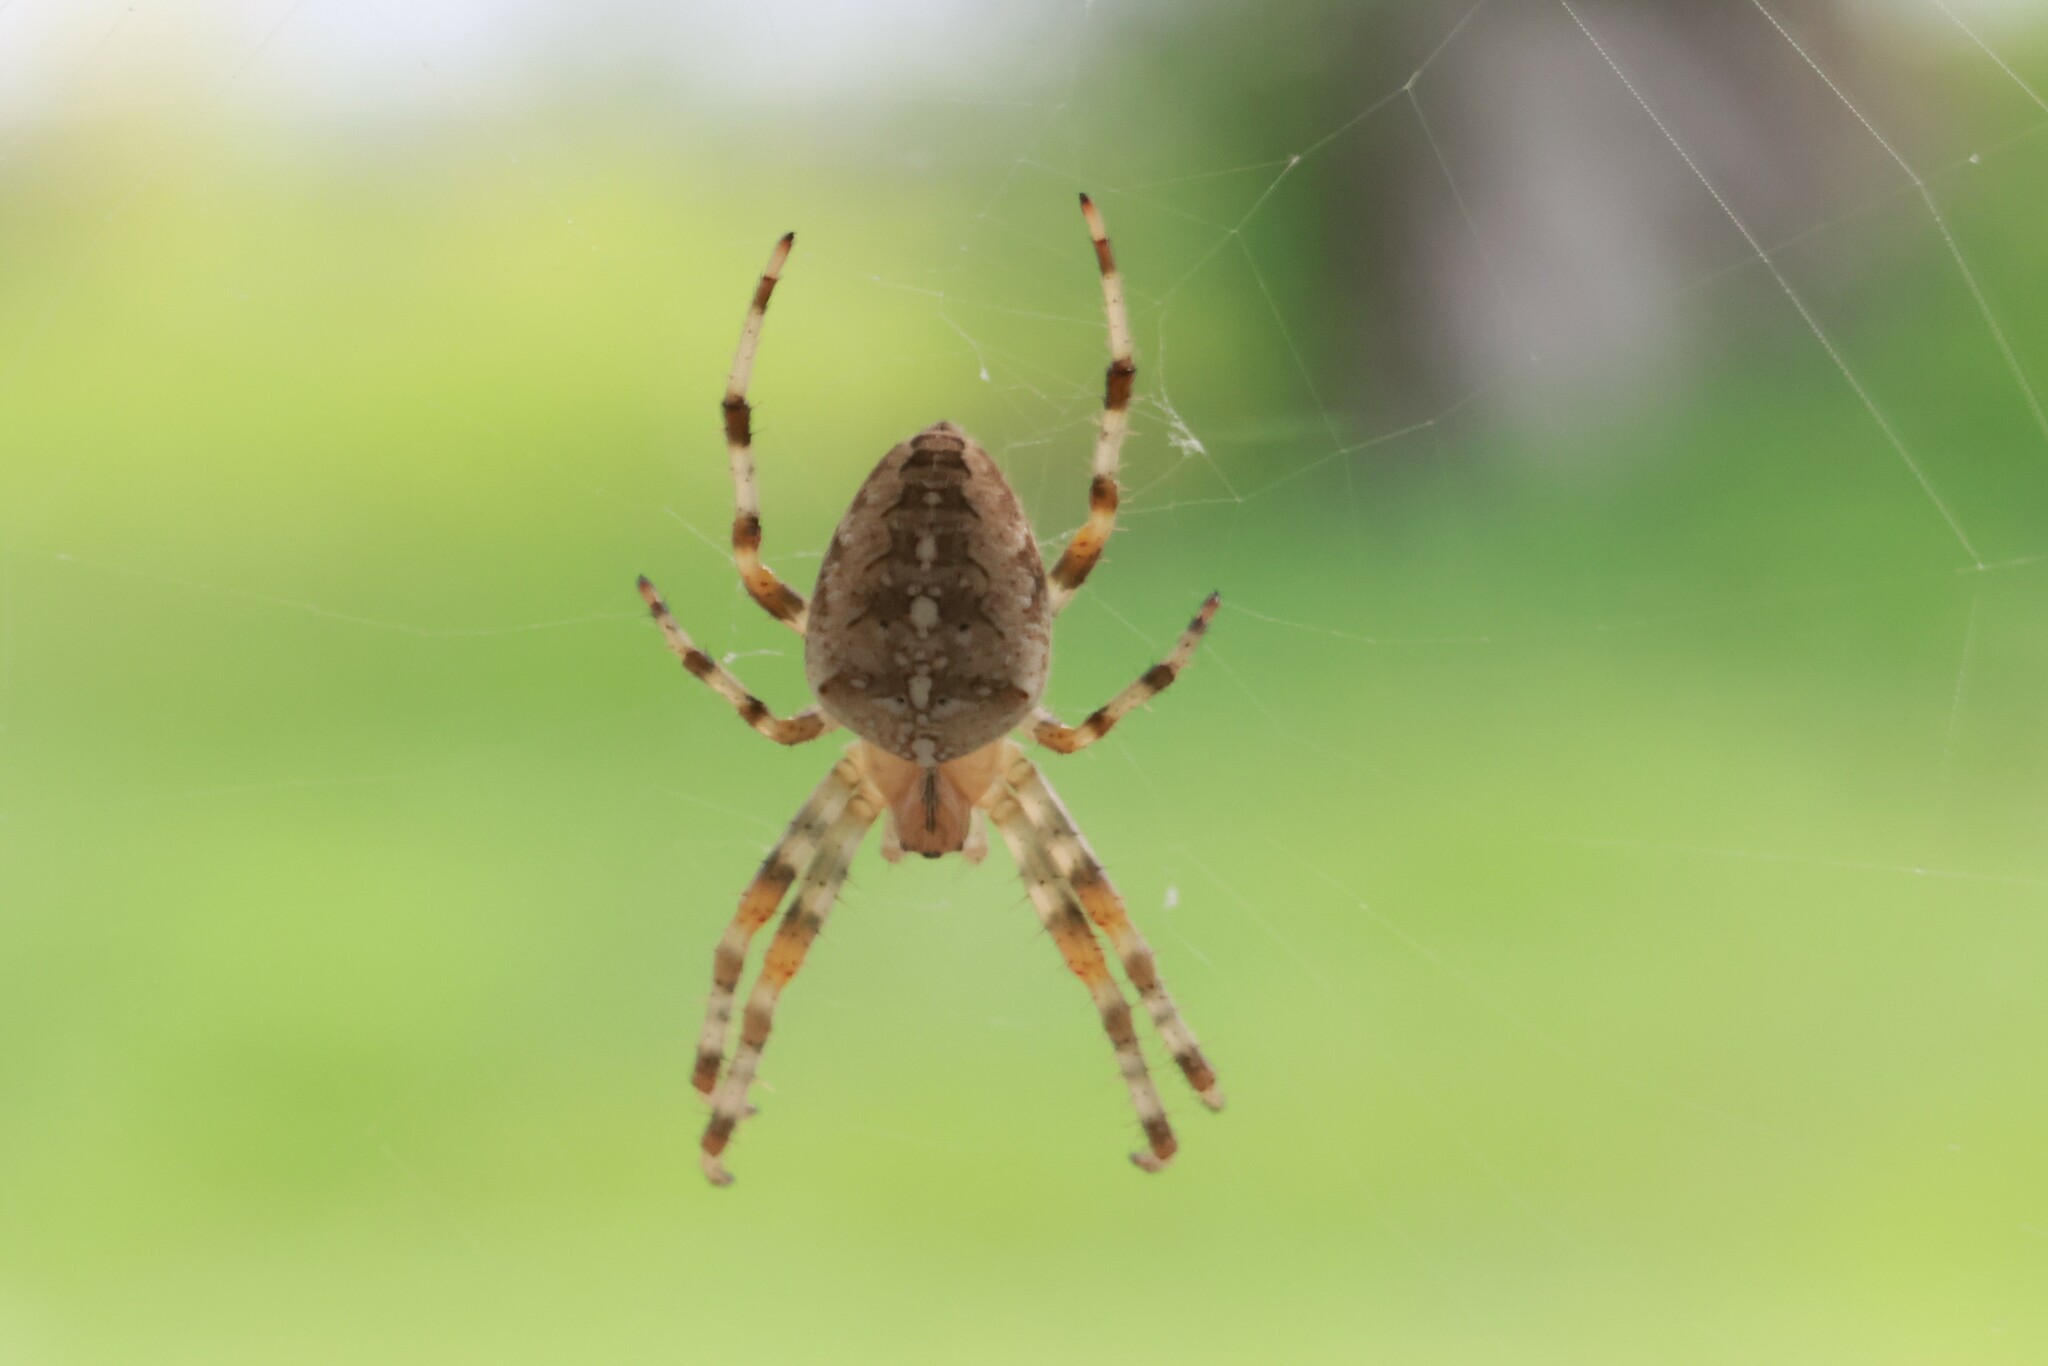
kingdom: Animalia
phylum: Arthropoda
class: Arachnida
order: Araneae
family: Araneidae
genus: Araneus
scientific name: Araneus diadematus
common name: Cross orbweaver
